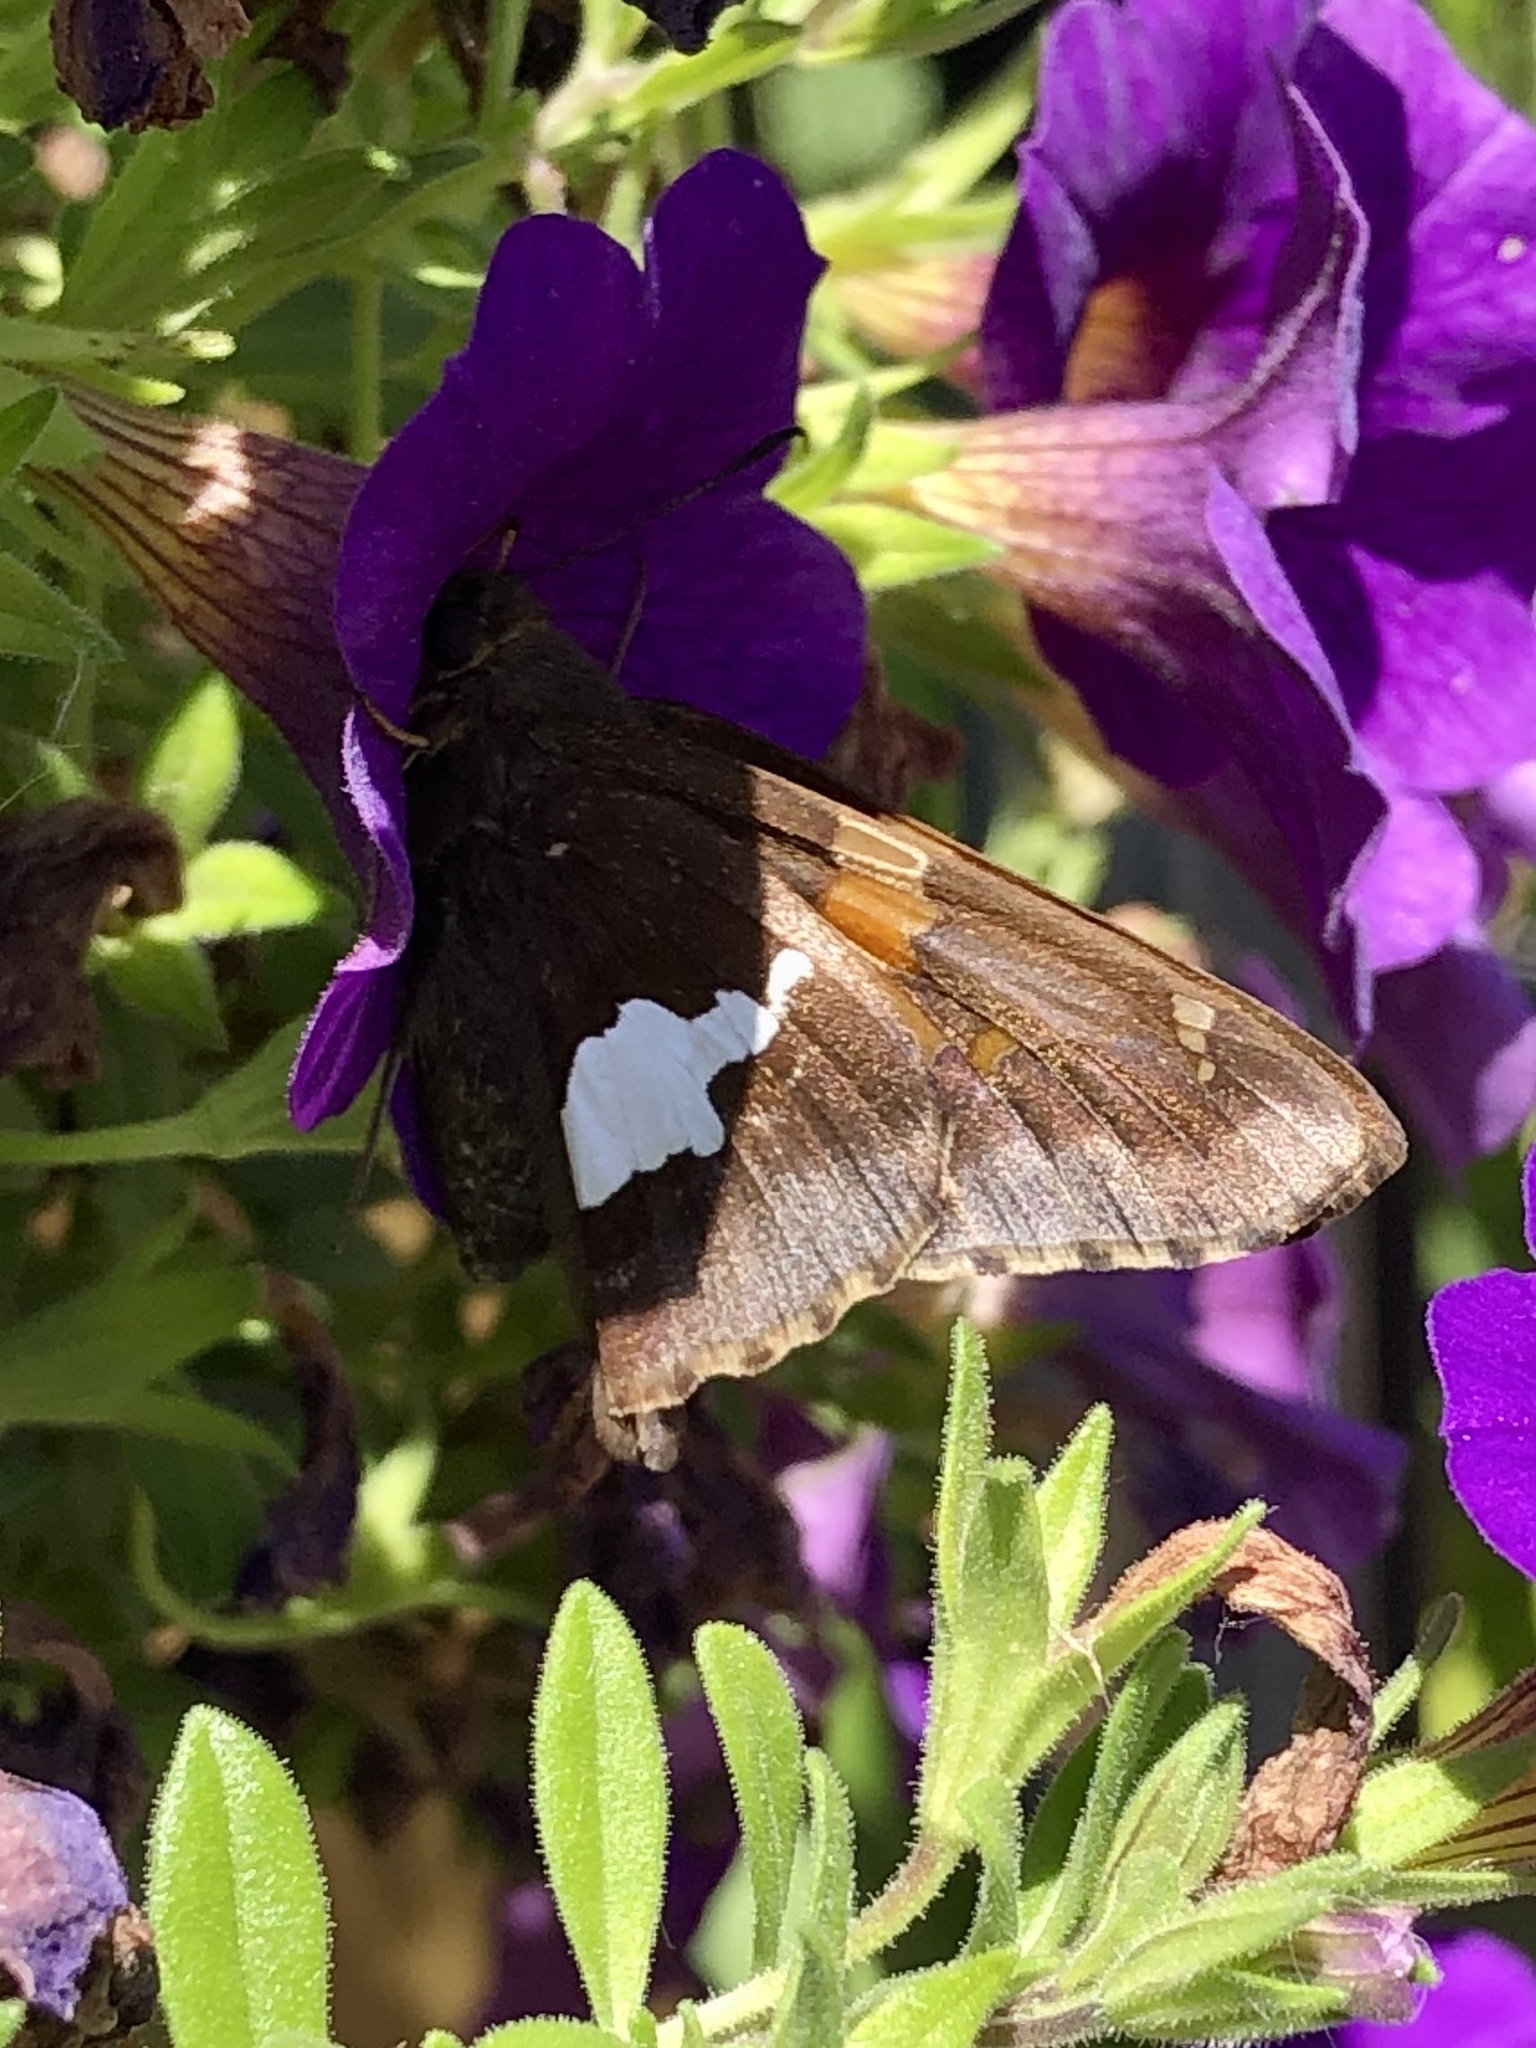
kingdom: Animalia
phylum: Arthropoda
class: Insecta
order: Lepidoptera
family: Hesperiidae
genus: Epargyreus
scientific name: Epargyreus clarus
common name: Silver-spotted skipper
